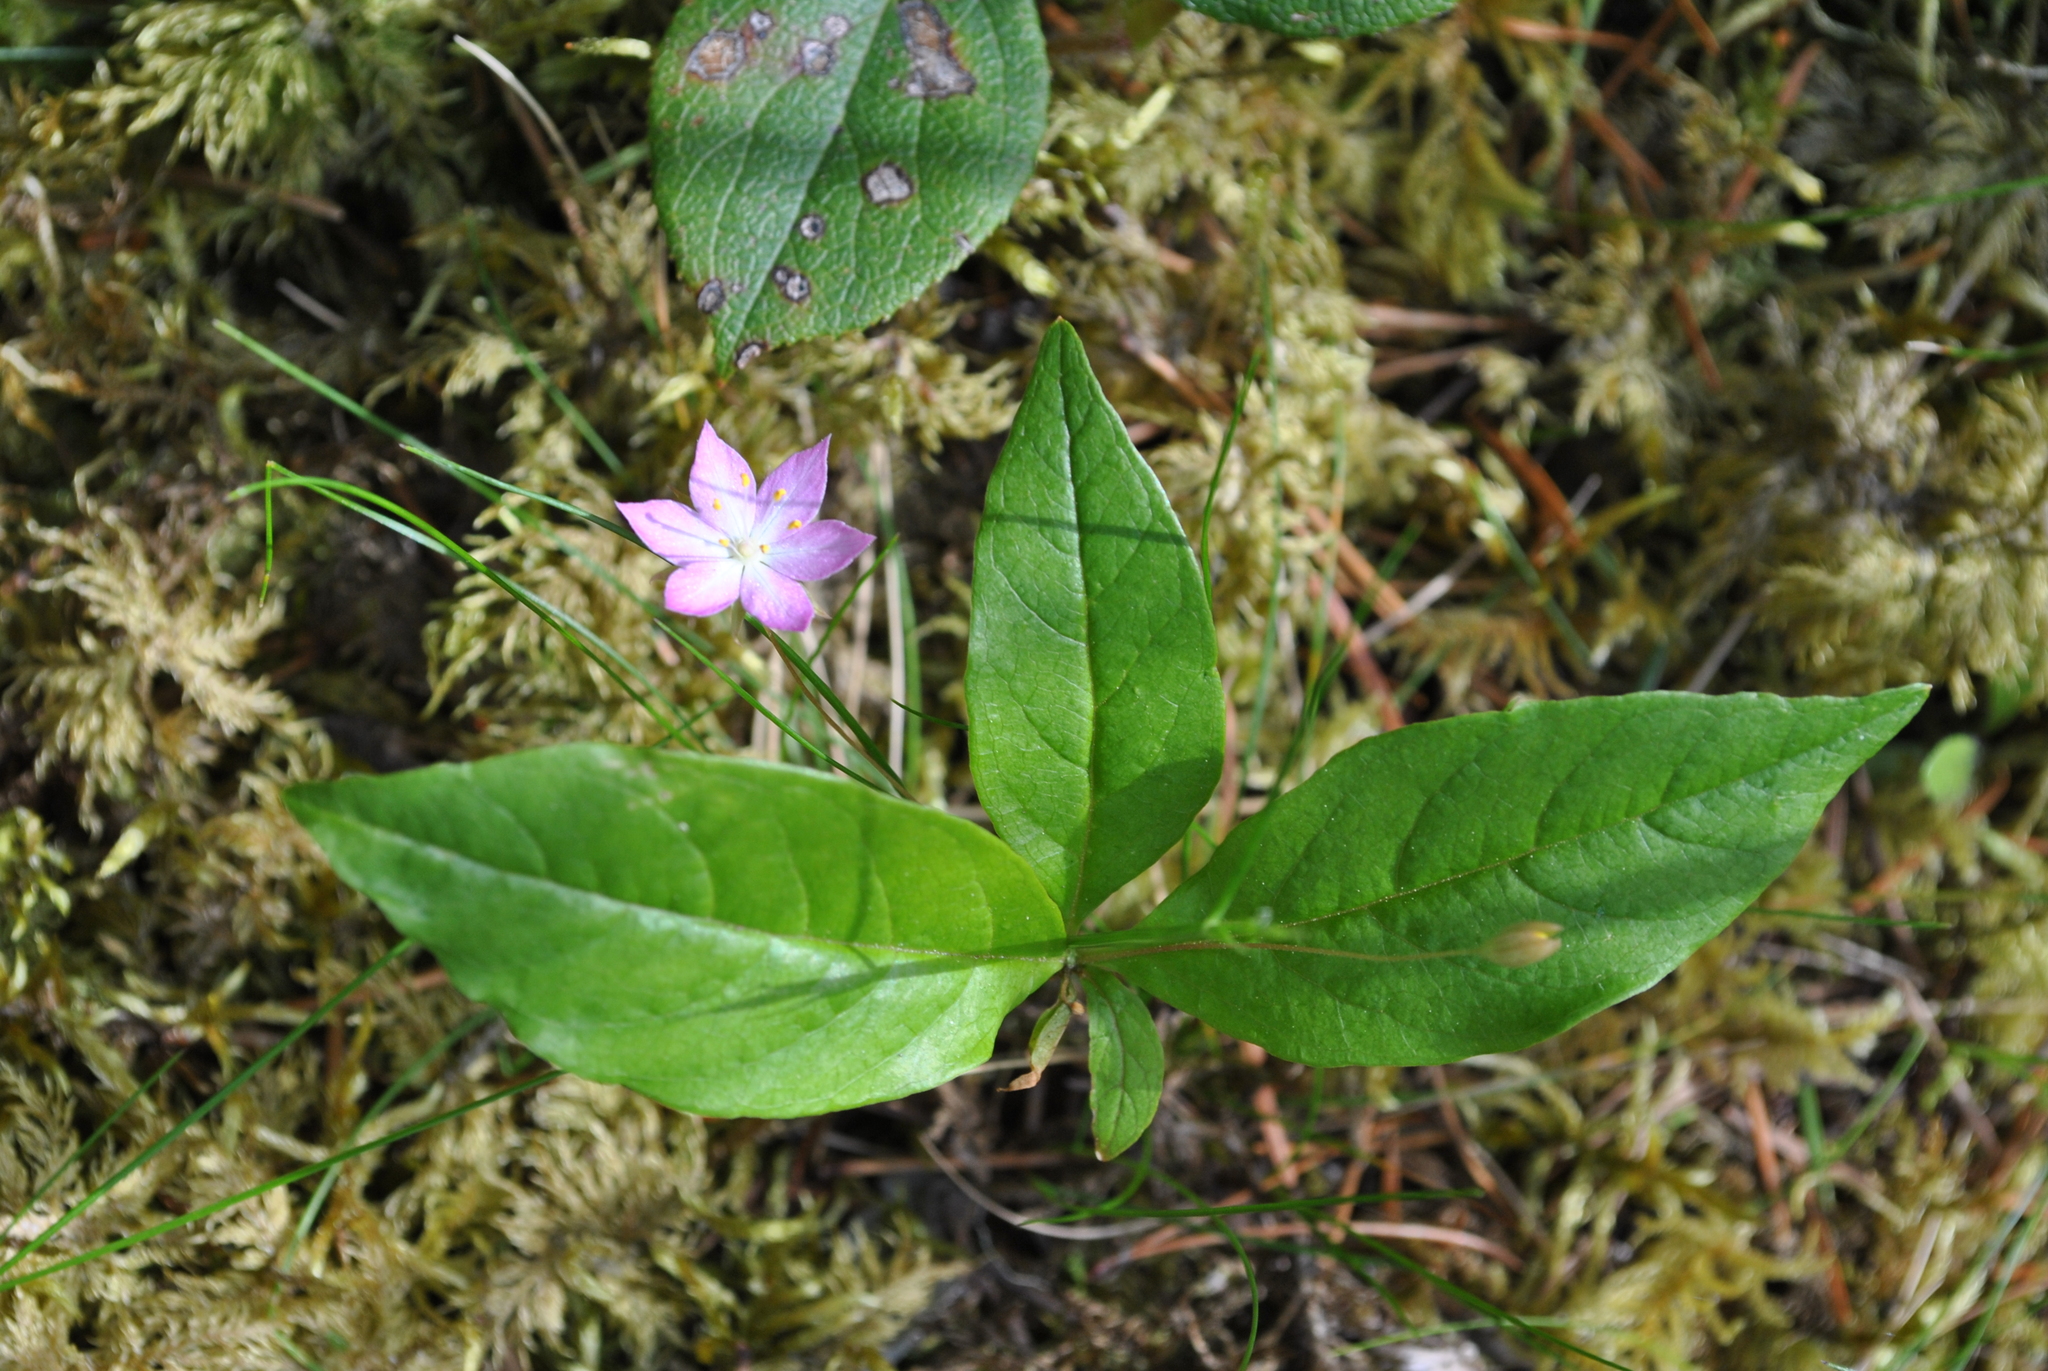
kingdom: Plantae
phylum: Tracheophyta
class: Magnoliopsida
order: Ericales
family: Primulaceae
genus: Lysimachia
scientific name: Lysimachia latifolia
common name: Pacific starflower
